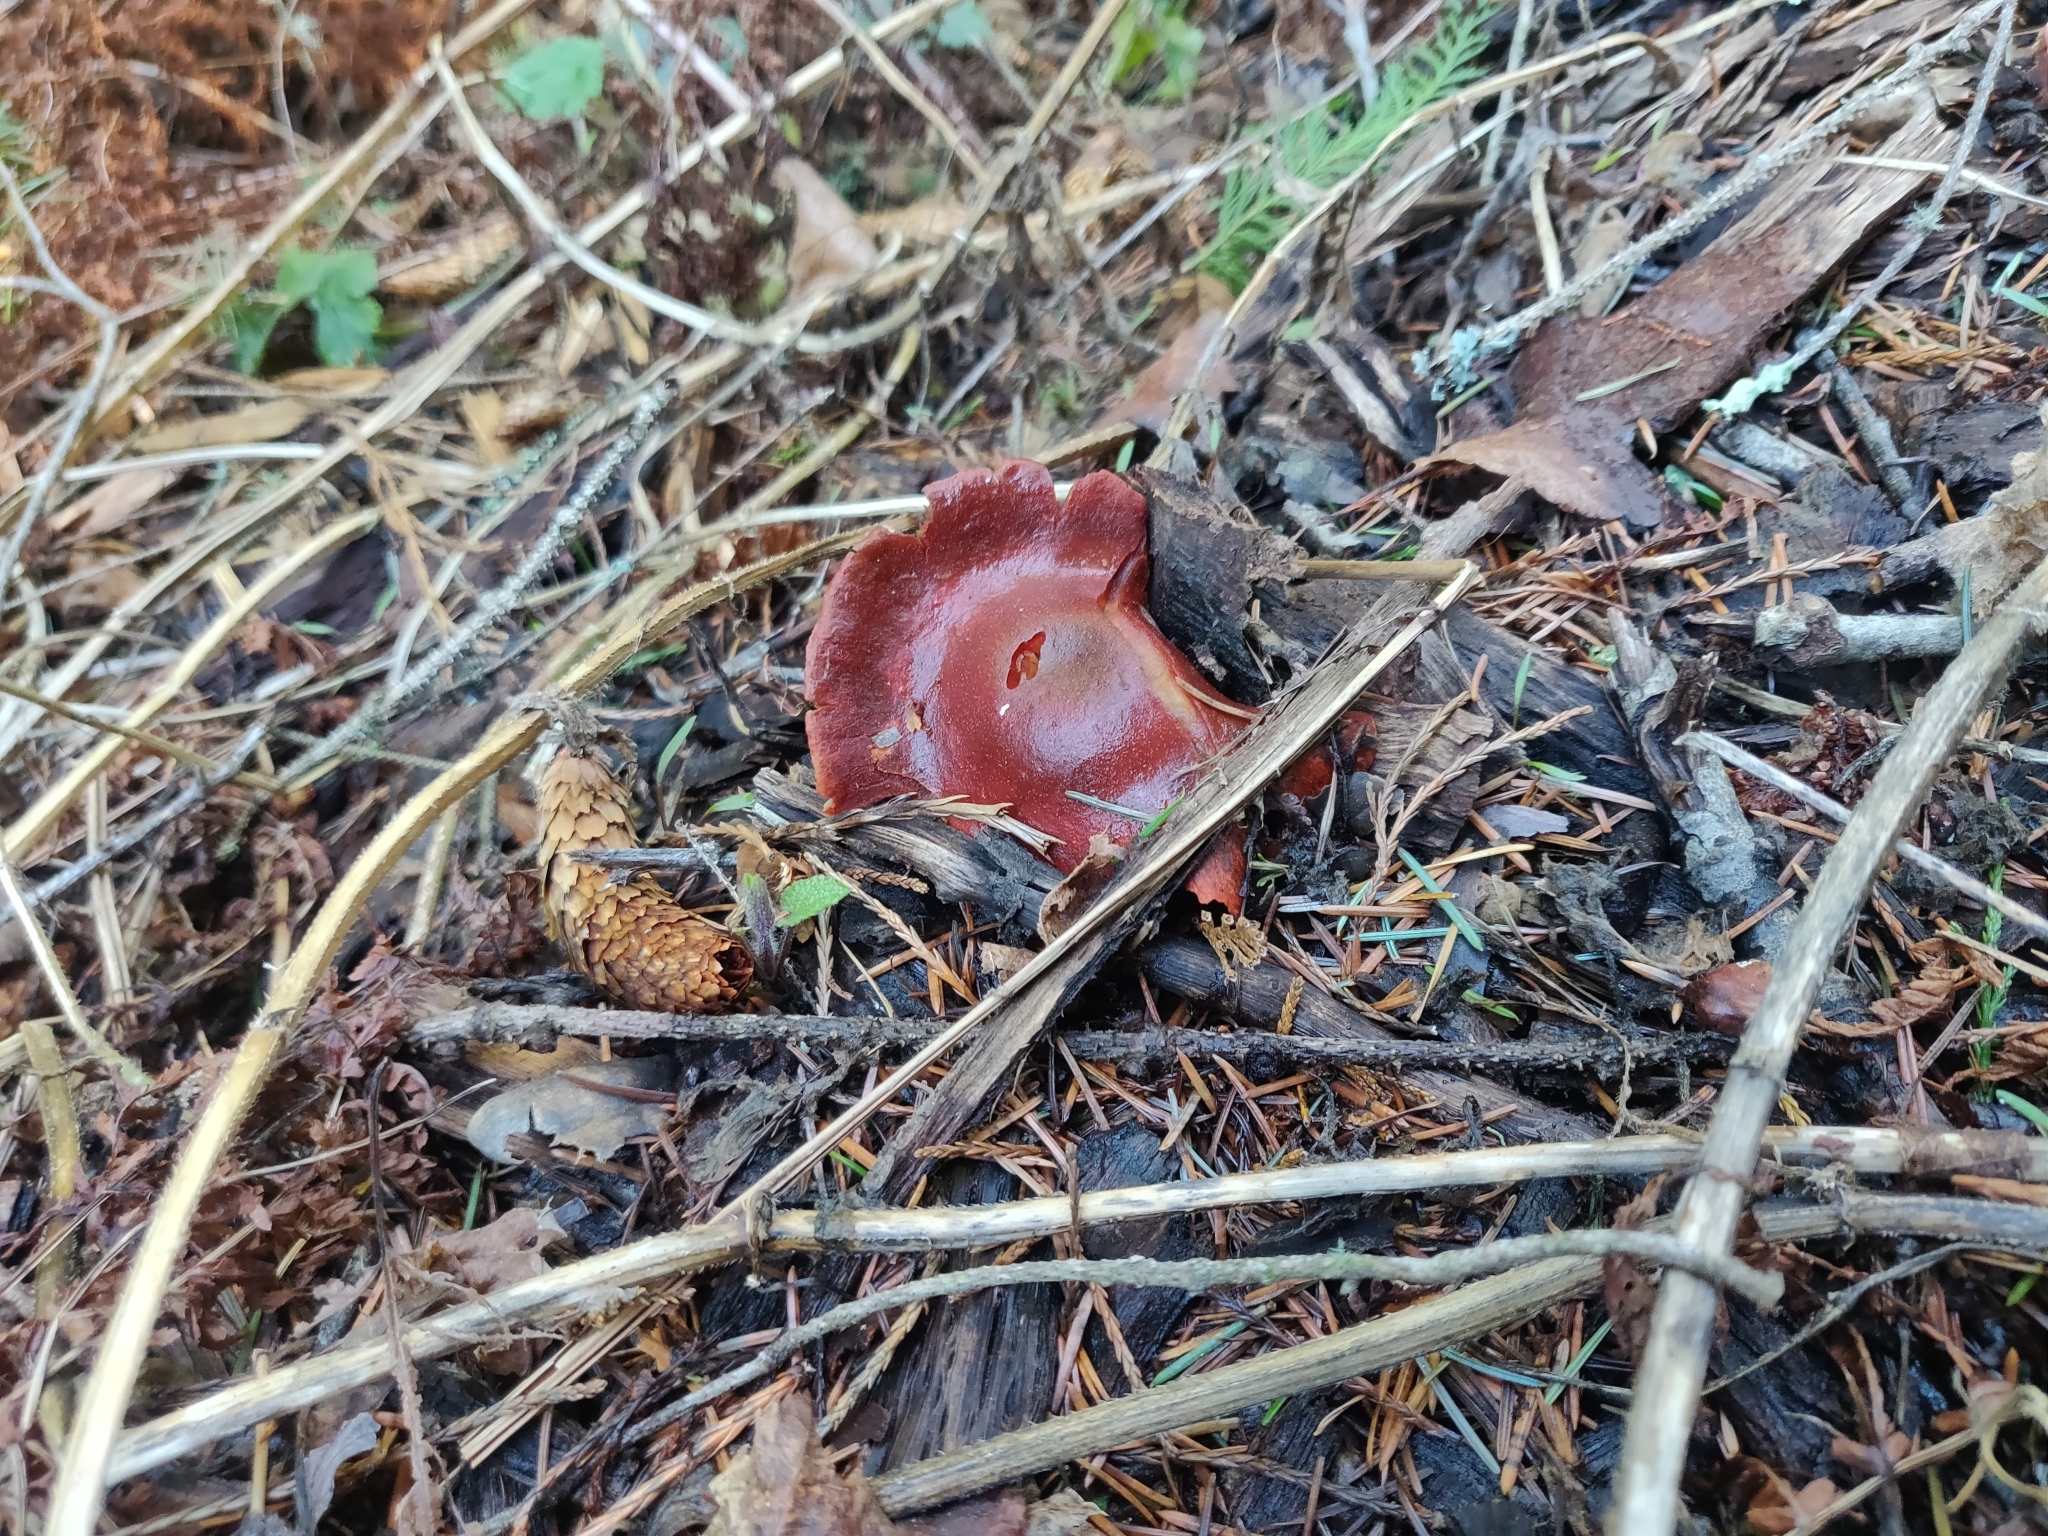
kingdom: Fungi
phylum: Basidiomycota
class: Agaricomycetes
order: Agaricales
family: Strophariaceae
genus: Leratiomyces
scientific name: Leratiomyces ceres
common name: Redlead roundhead
